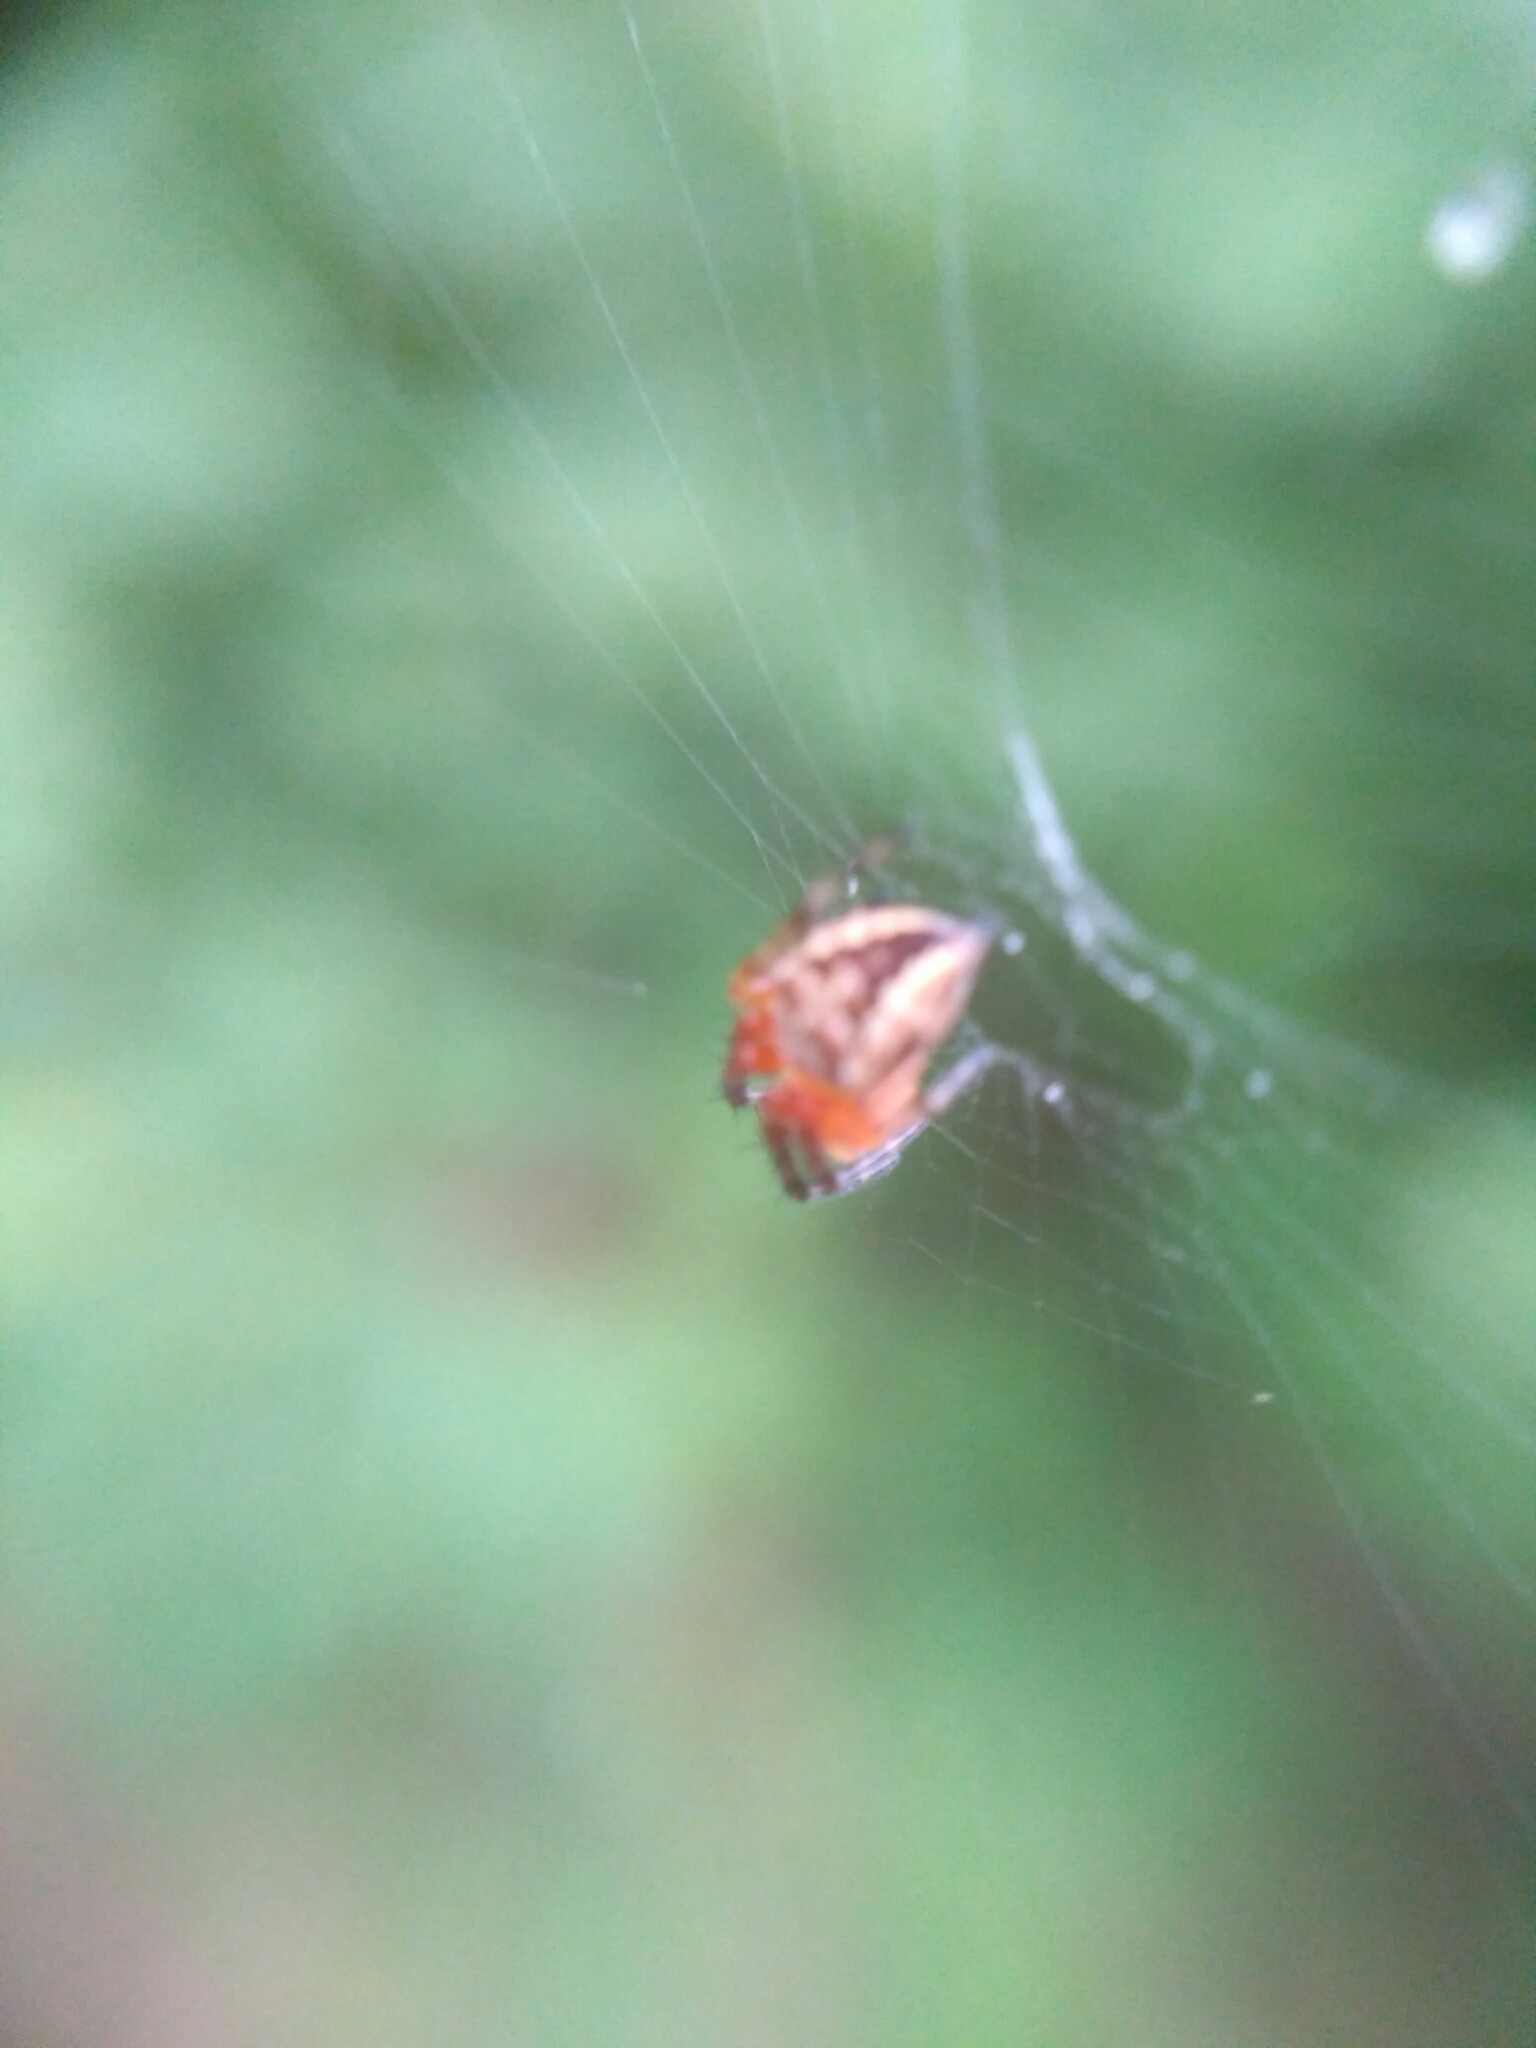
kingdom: Animalia
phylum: Arthropoda
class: Arachnida
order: Araneae
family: Araneidae
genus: Araneus
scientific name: Araneus diadematus
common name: Cross orbweaver
